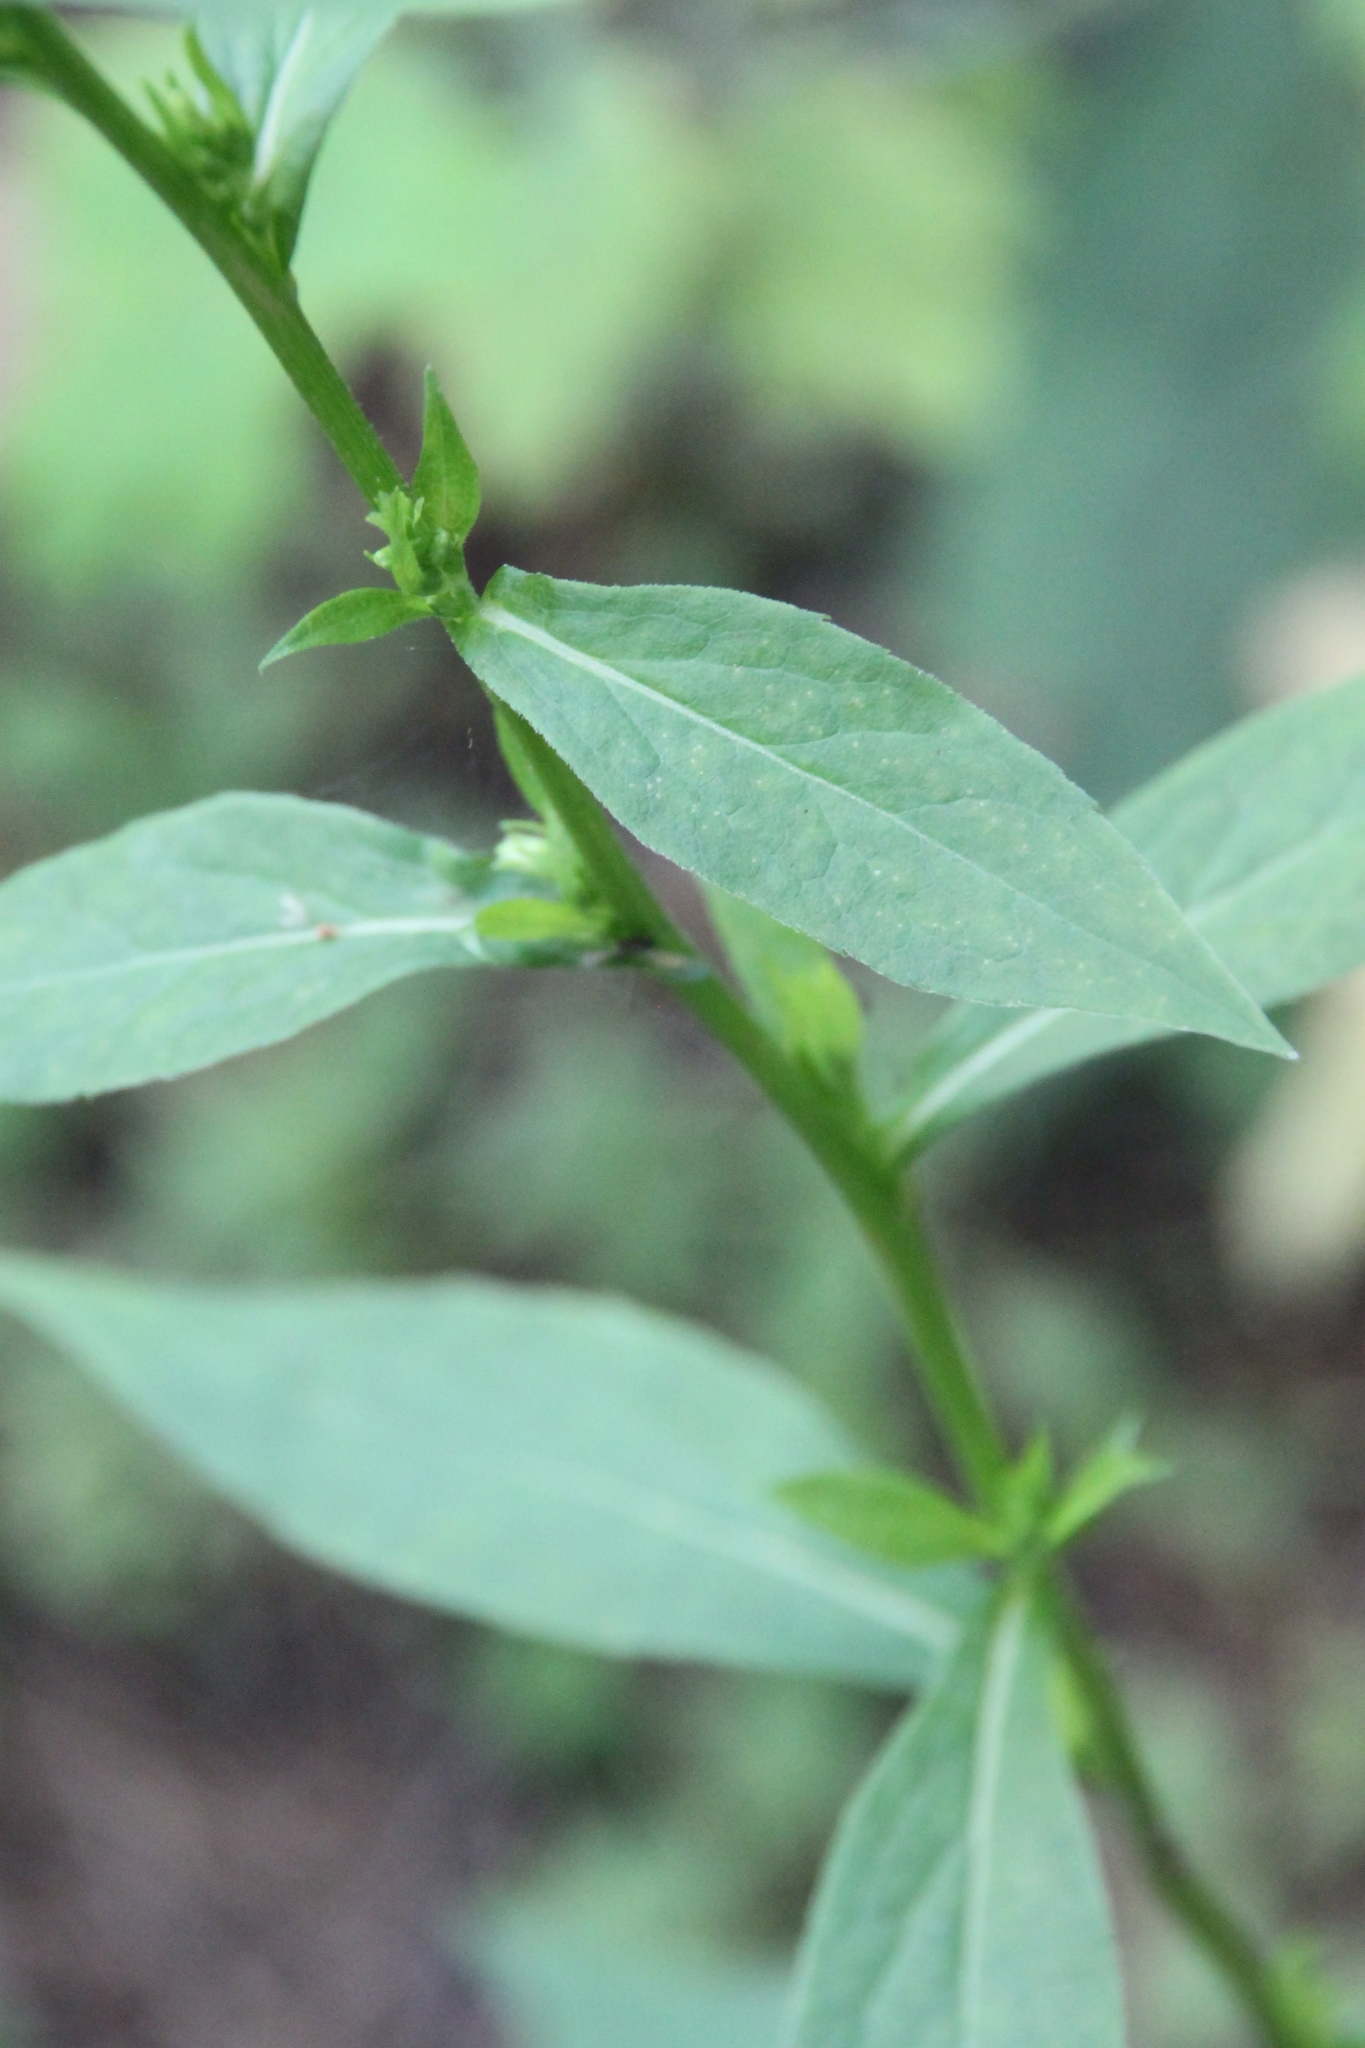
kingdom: Plantae
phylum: Tracheophyta
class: Magnoliopsida
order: Asterales
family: Asteraceae
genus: Solidago
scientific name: Solidago virgaurea
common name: Goldenrod
